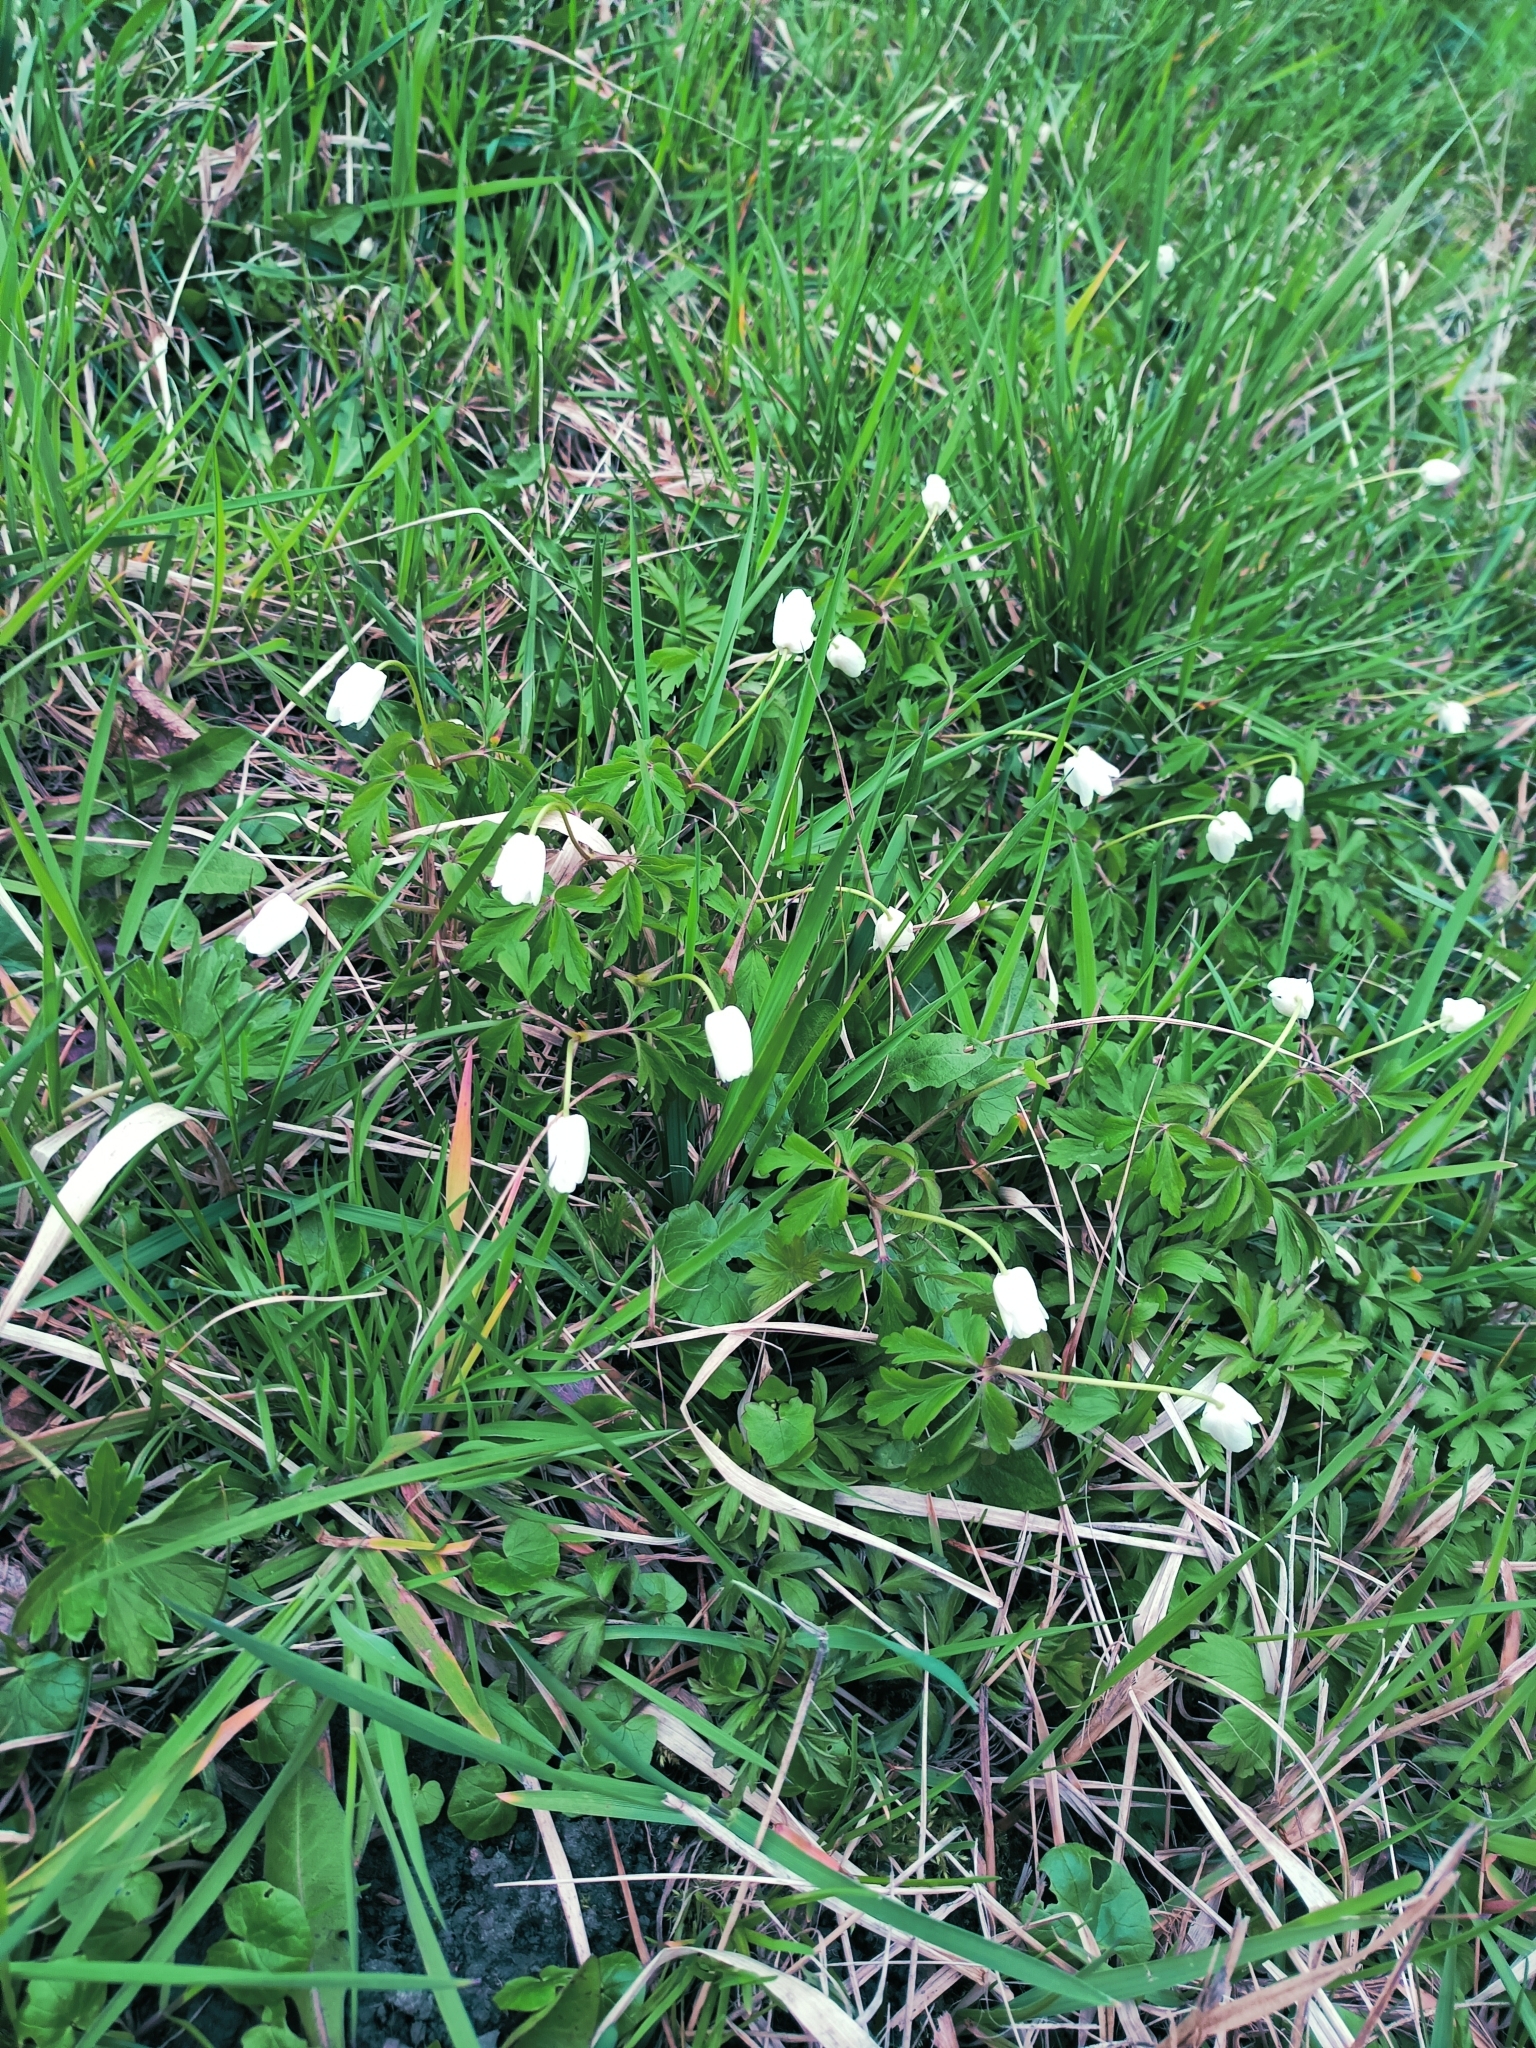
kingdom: Plantae
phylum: Tracheophyta
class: Magnoliopsida
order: Ranunculales
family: Ranunculaceae
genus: Anemone
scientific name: Anemone nemorosa
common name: Wood anemone
